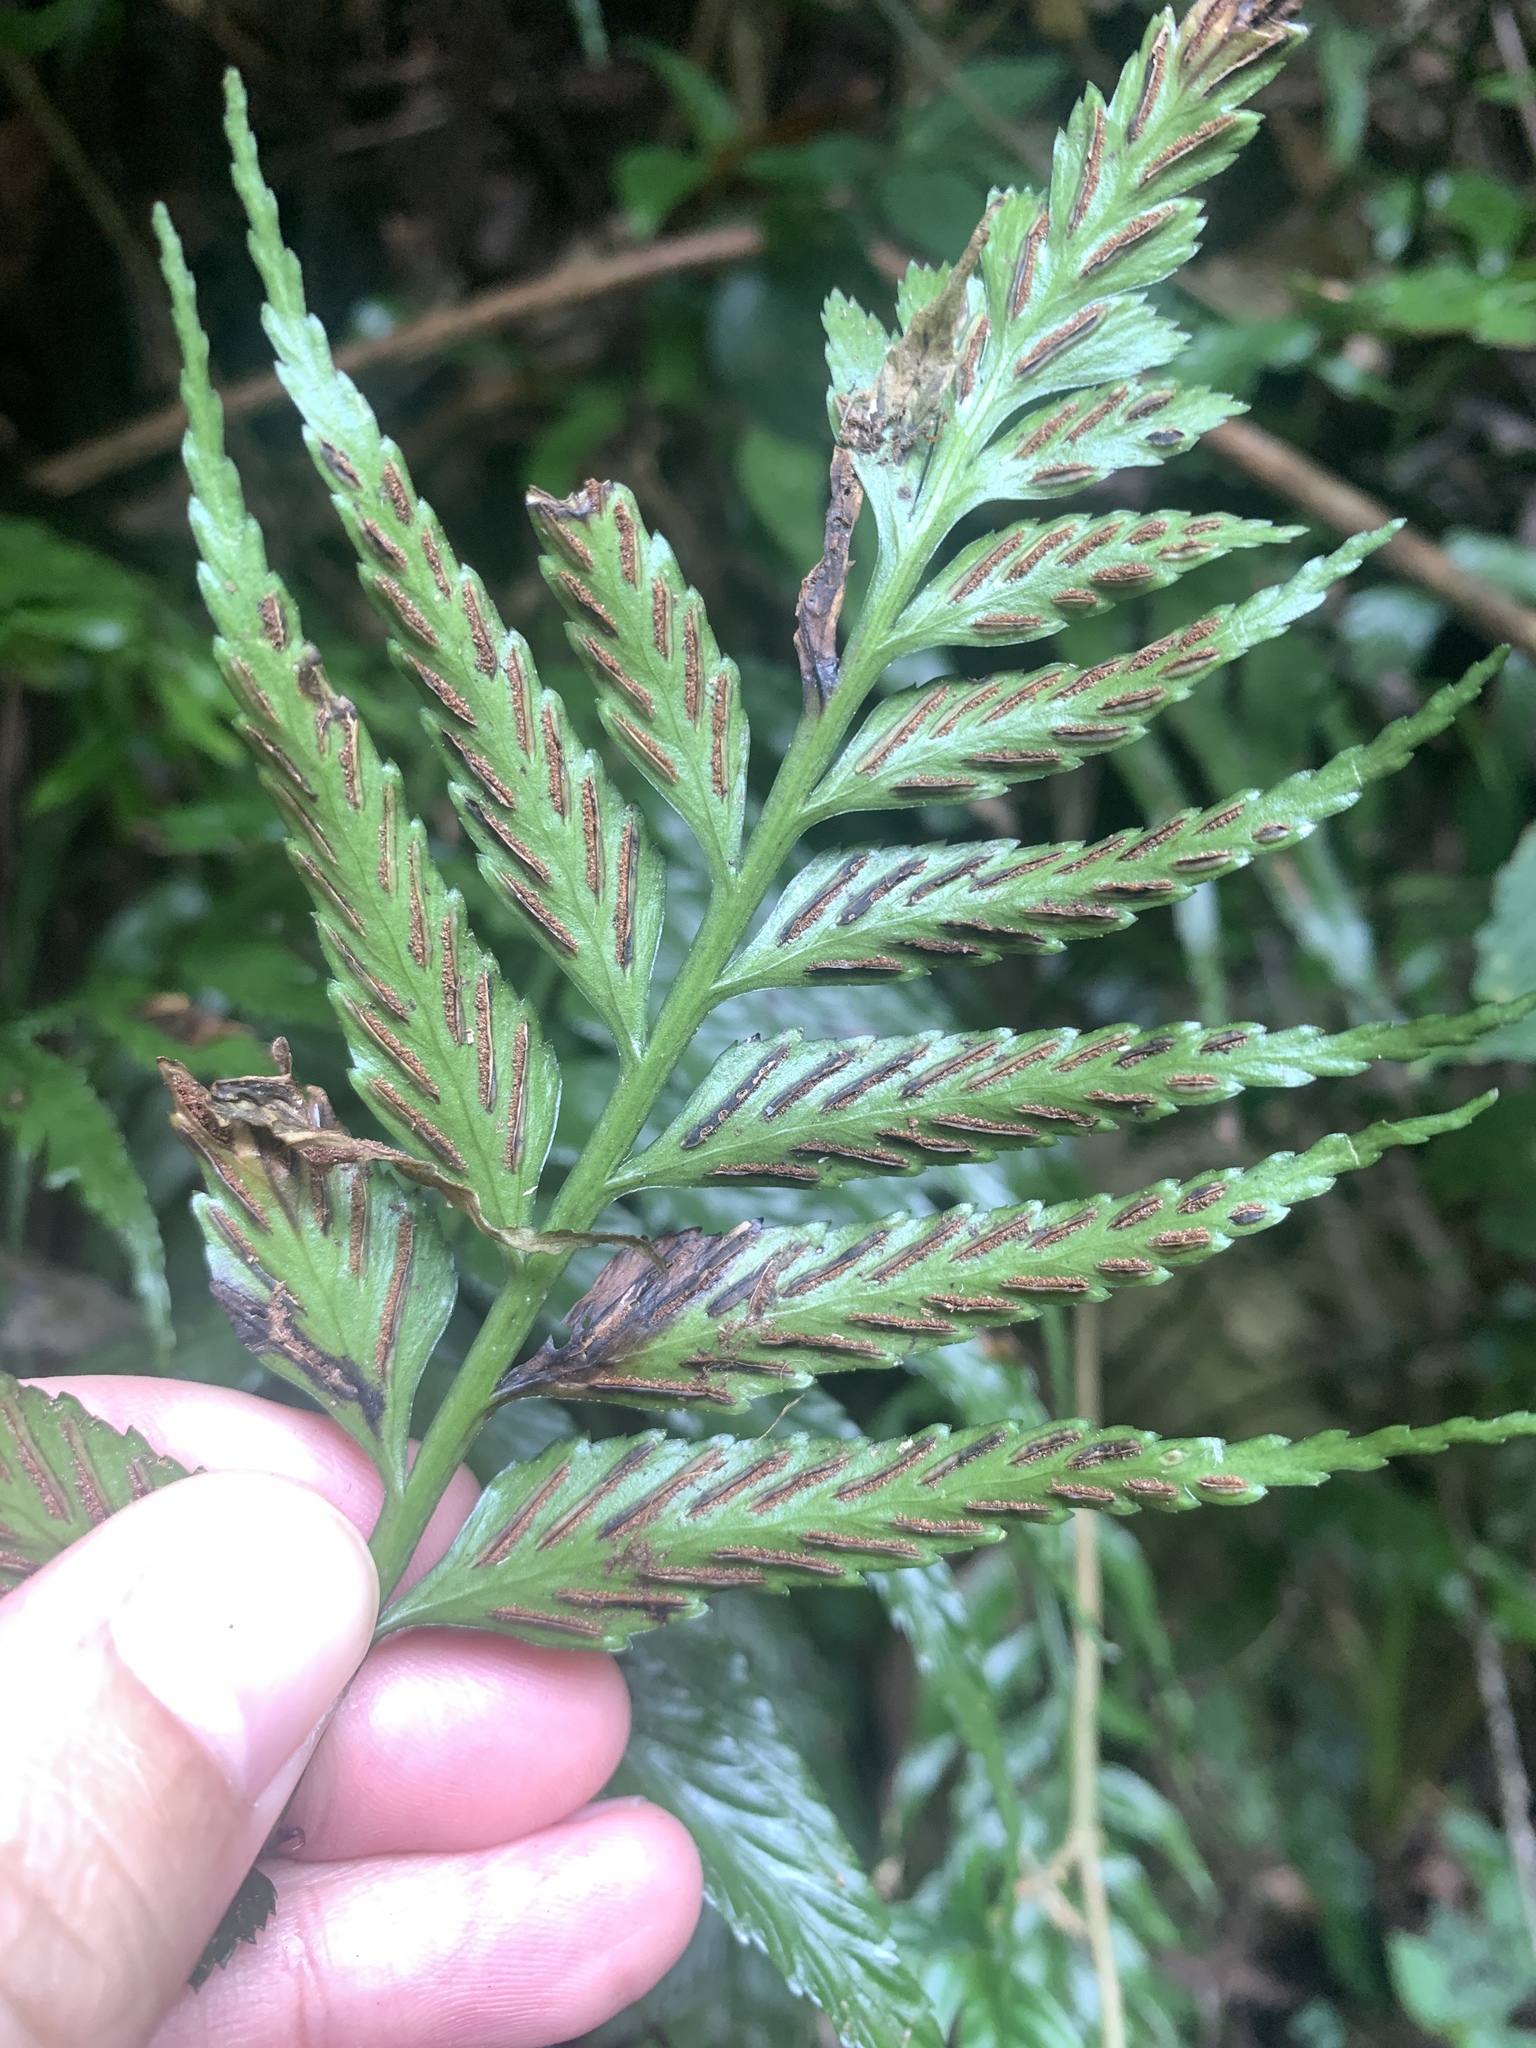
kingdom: Plantae
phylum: Tracheophyta
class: Polypodiopsida
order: Polypodiales
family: Aspleniaceae
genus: Asplenium
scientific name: Asplenium wrightii
